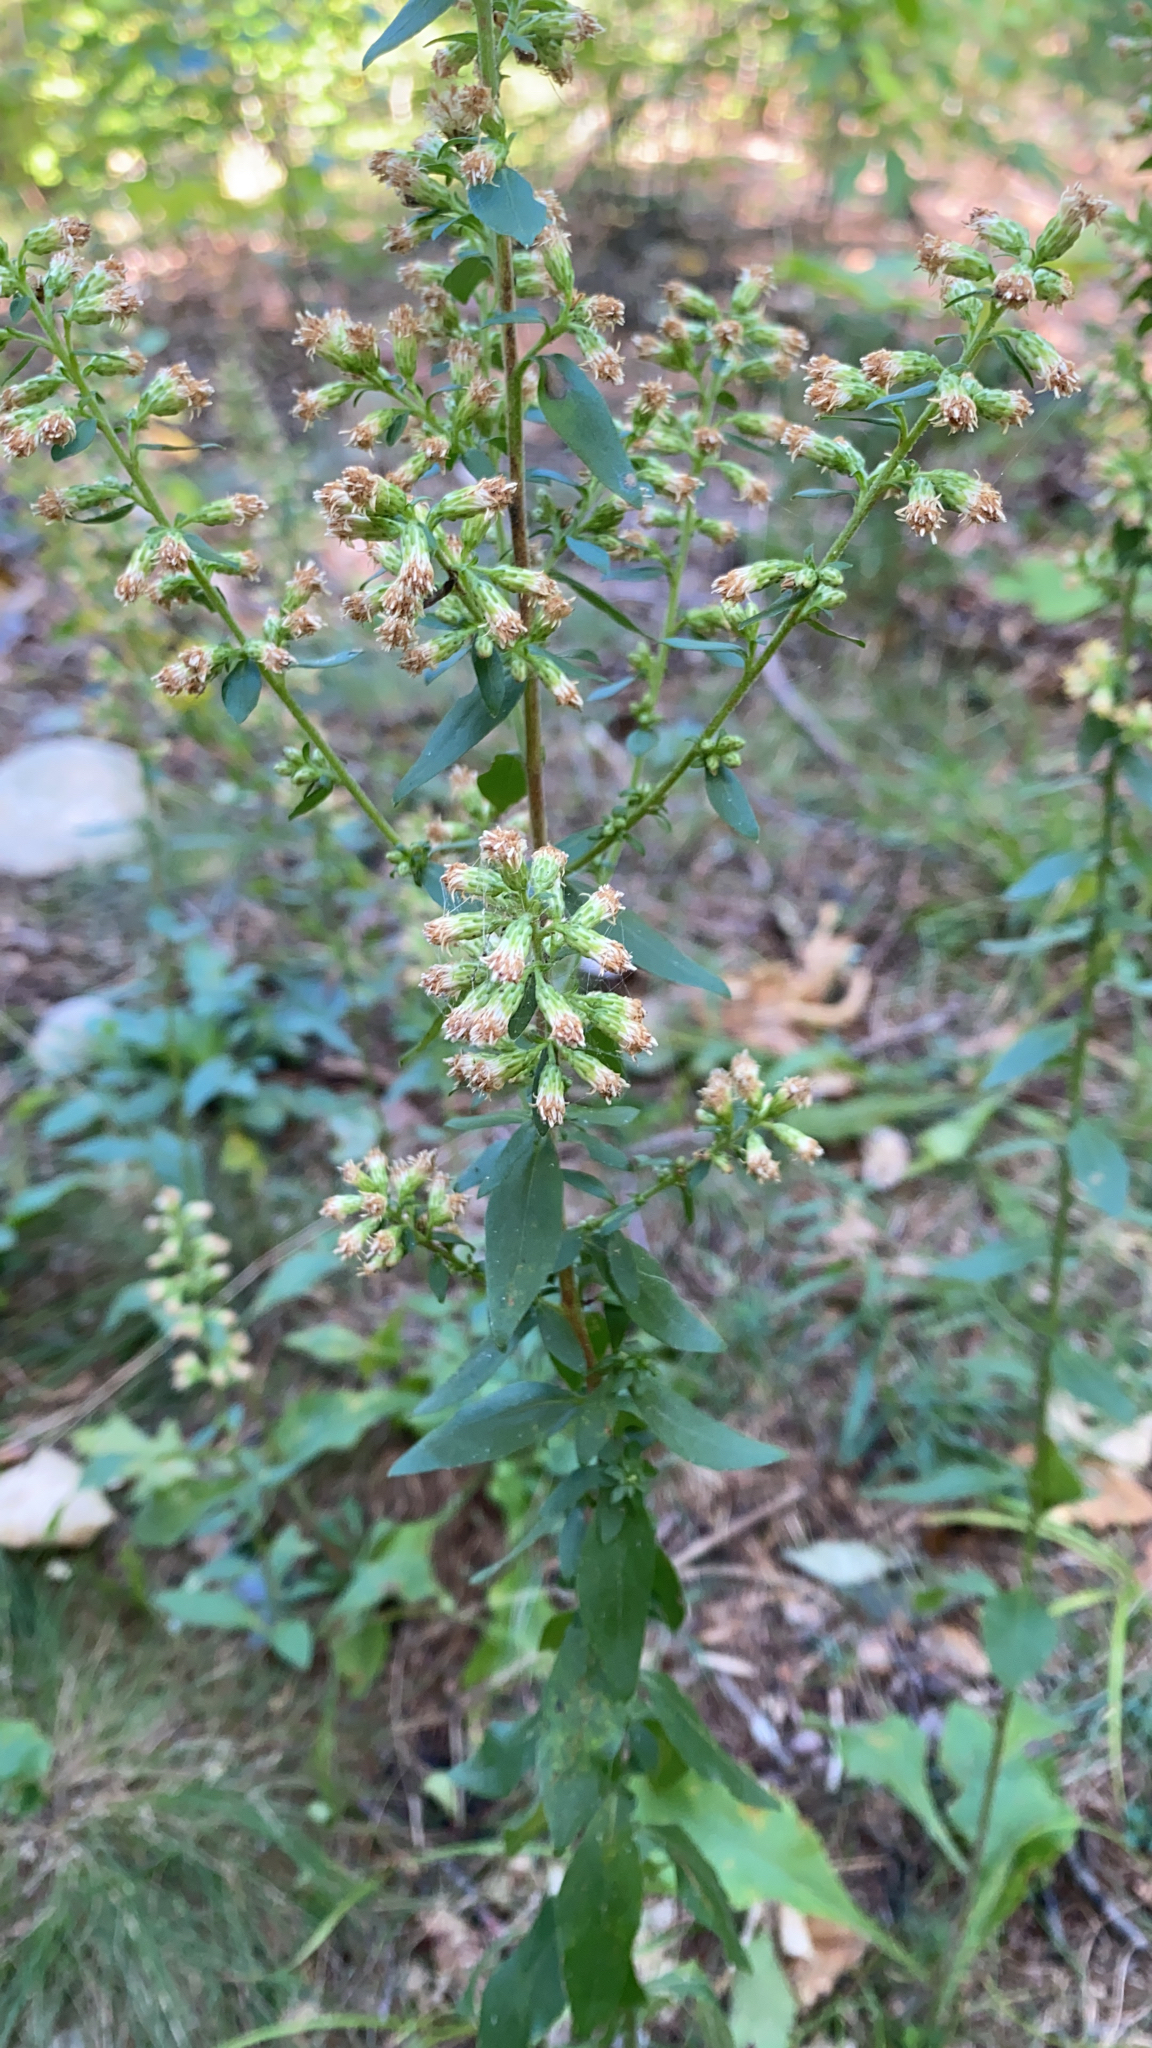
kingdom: Plantae
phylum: Tracheophyta
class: Magnoliopsida
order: Asterales
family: Asteraceae
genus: Solidago
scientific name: Solidago bicolor
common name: Silverrod
